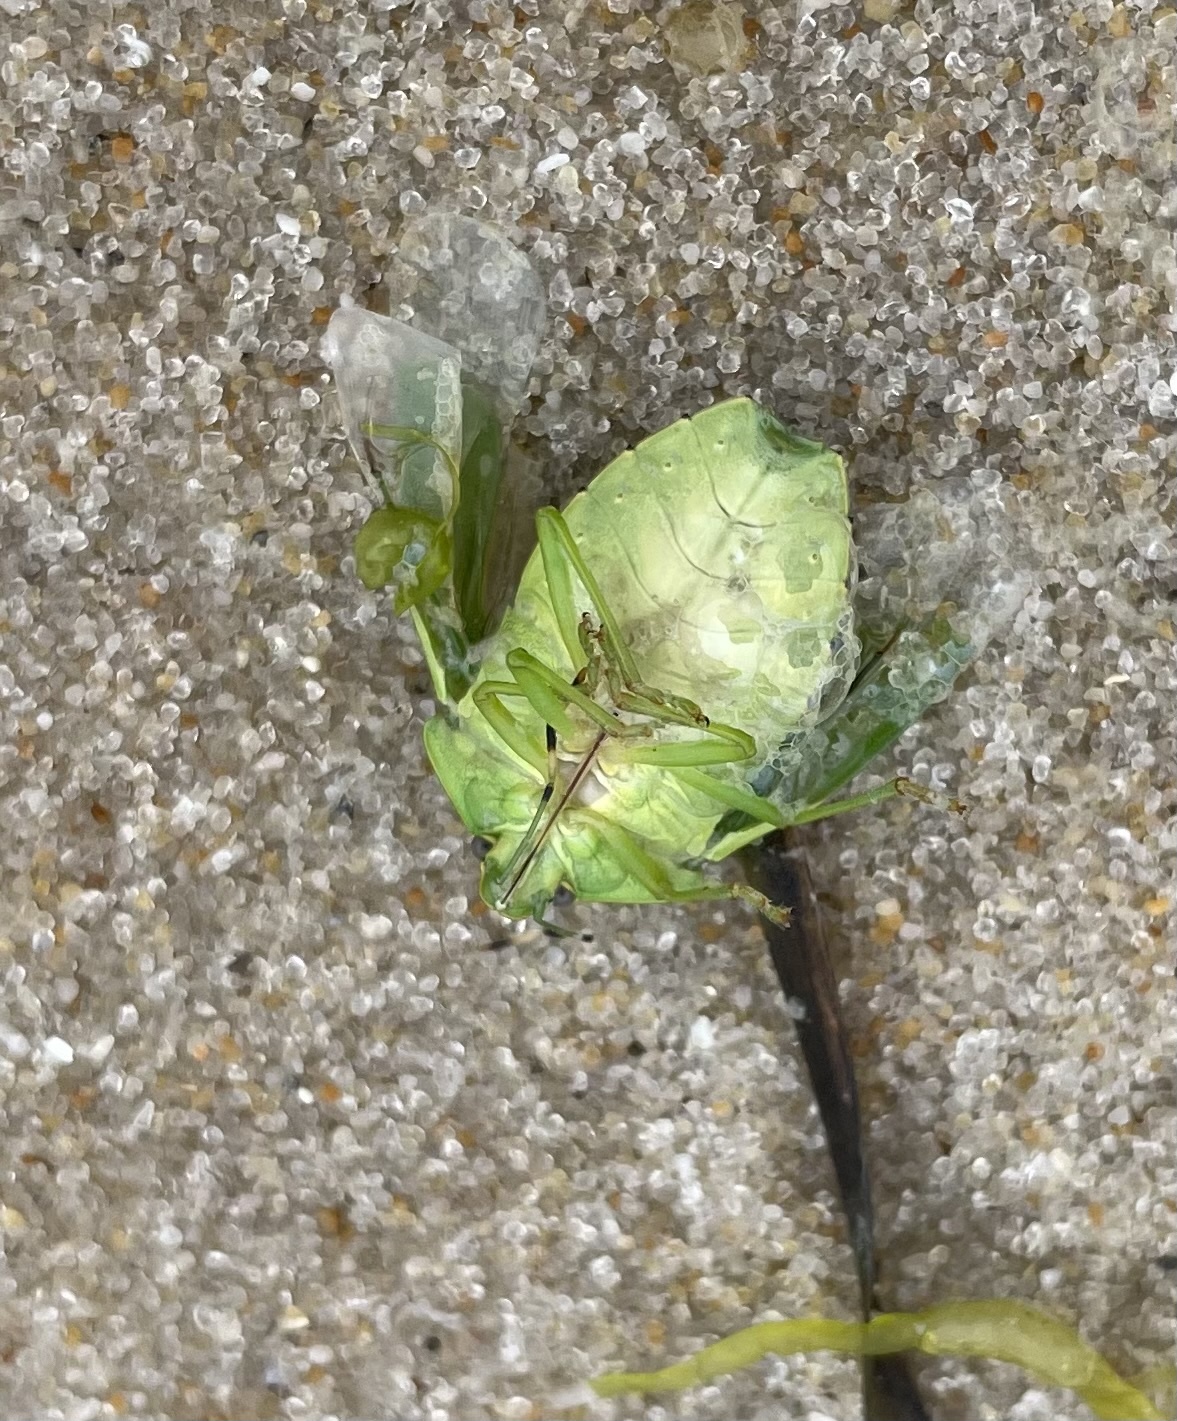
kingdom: Animalia
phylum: Arthropoda
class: Insecta
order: Hemiptera
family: Pentatomidae
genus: Chinavia
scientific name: Chinavia hilaris
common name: Green stink bug
